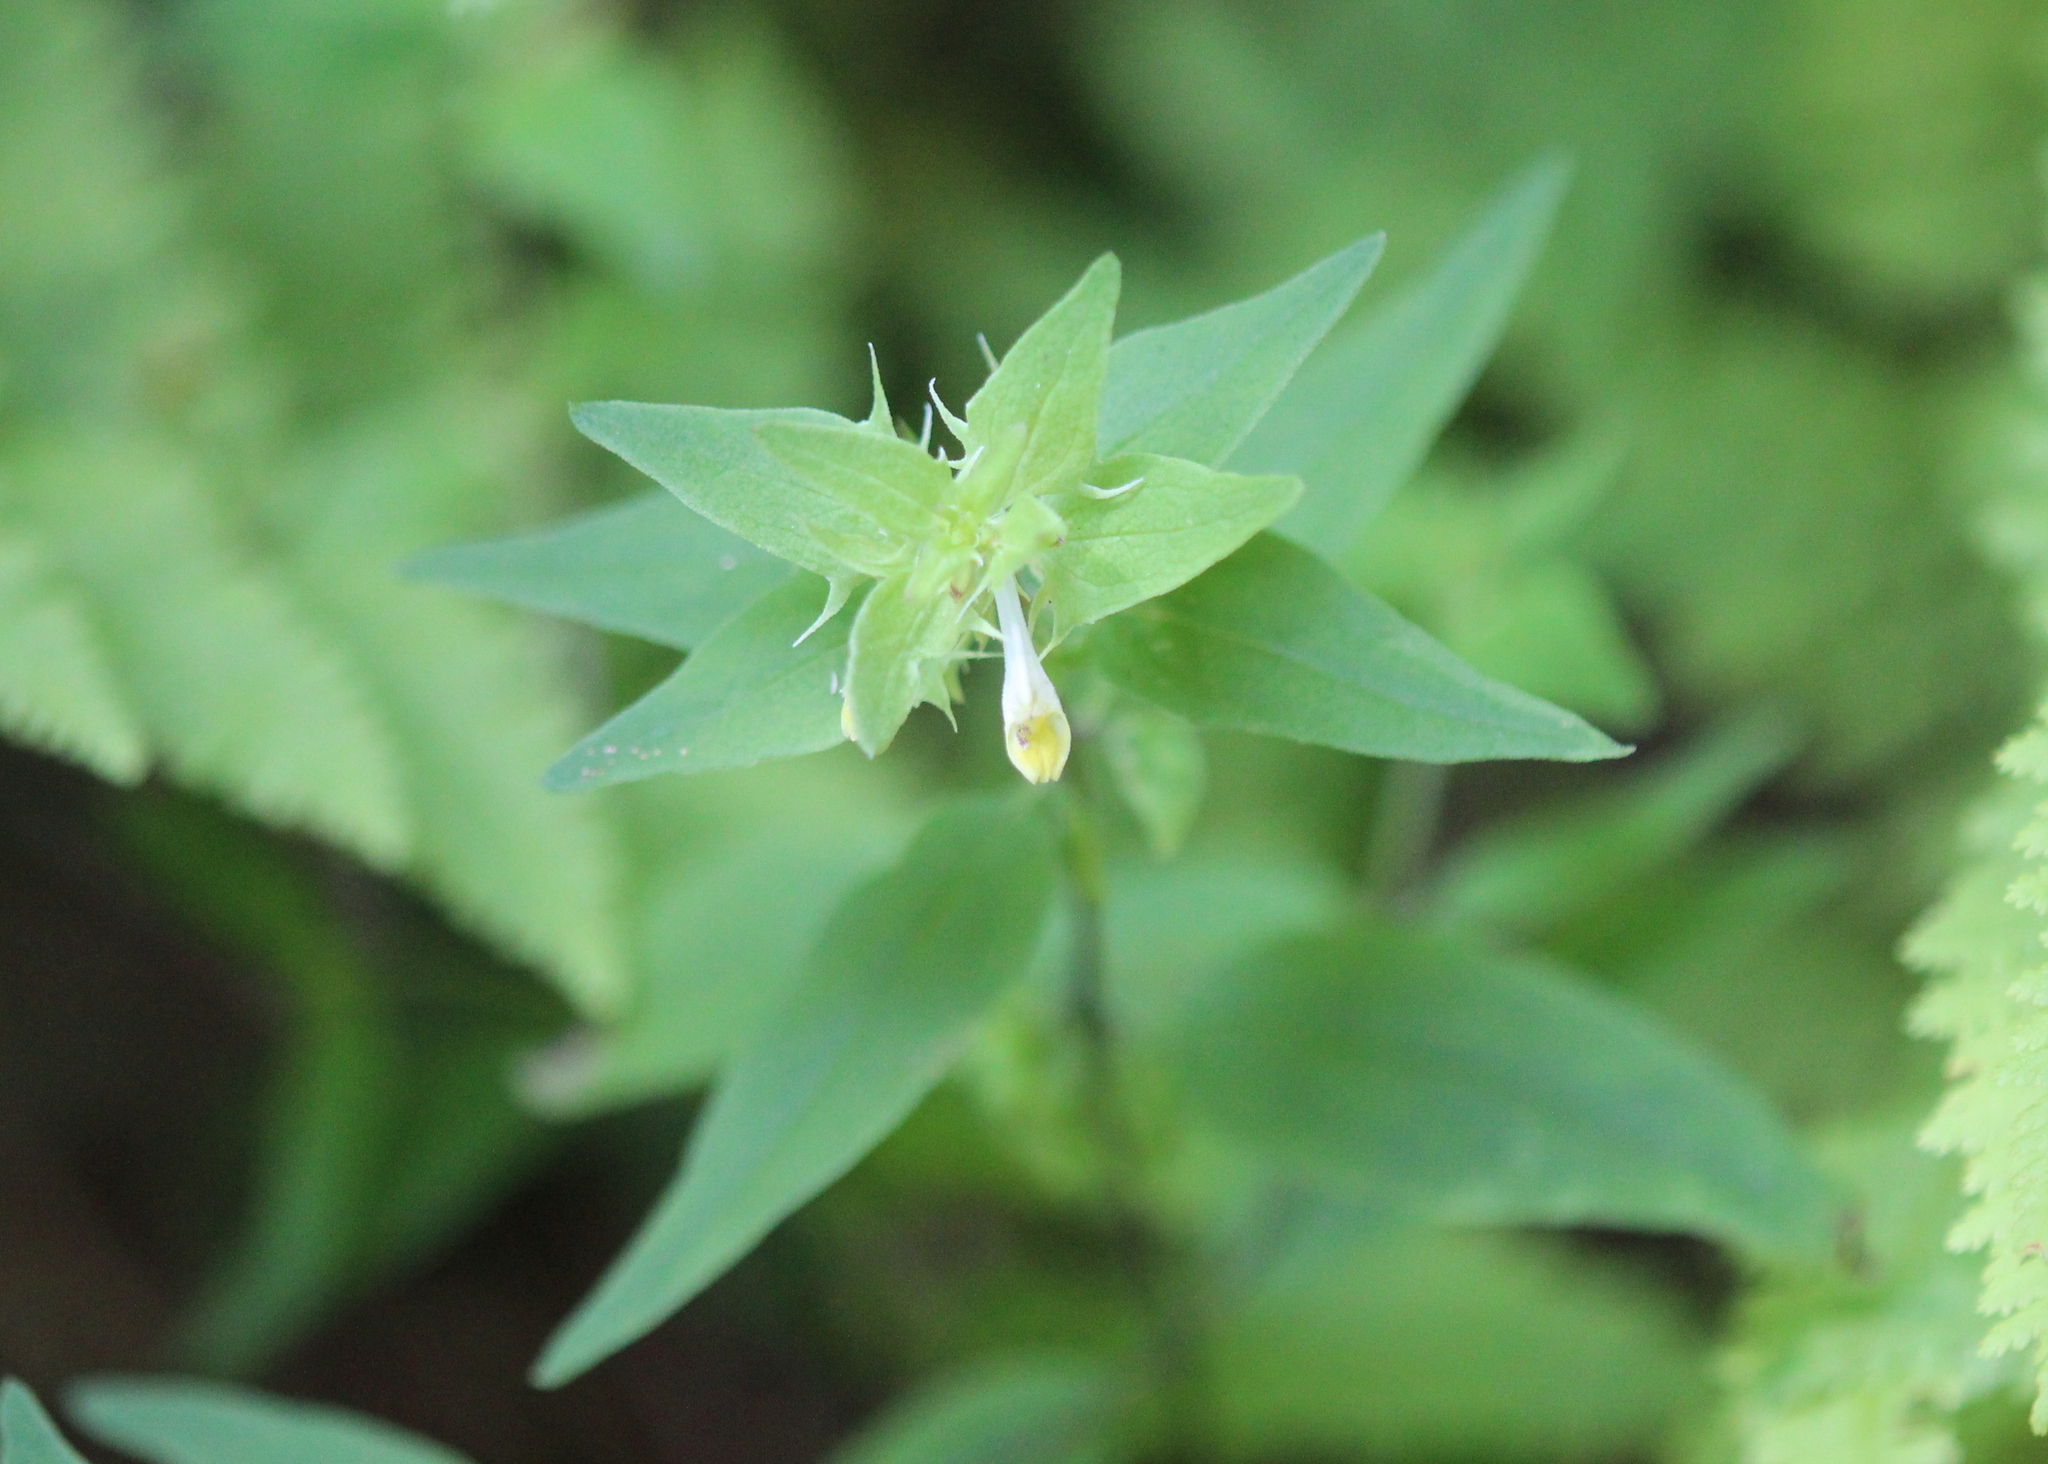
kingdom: Plantae
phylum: Tracheophyta
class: Magnoliopsida
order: Lamiales
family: Orobanchaceae
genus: Melampyrum
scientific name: Melampyrum lineare
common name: American cow-wheat
